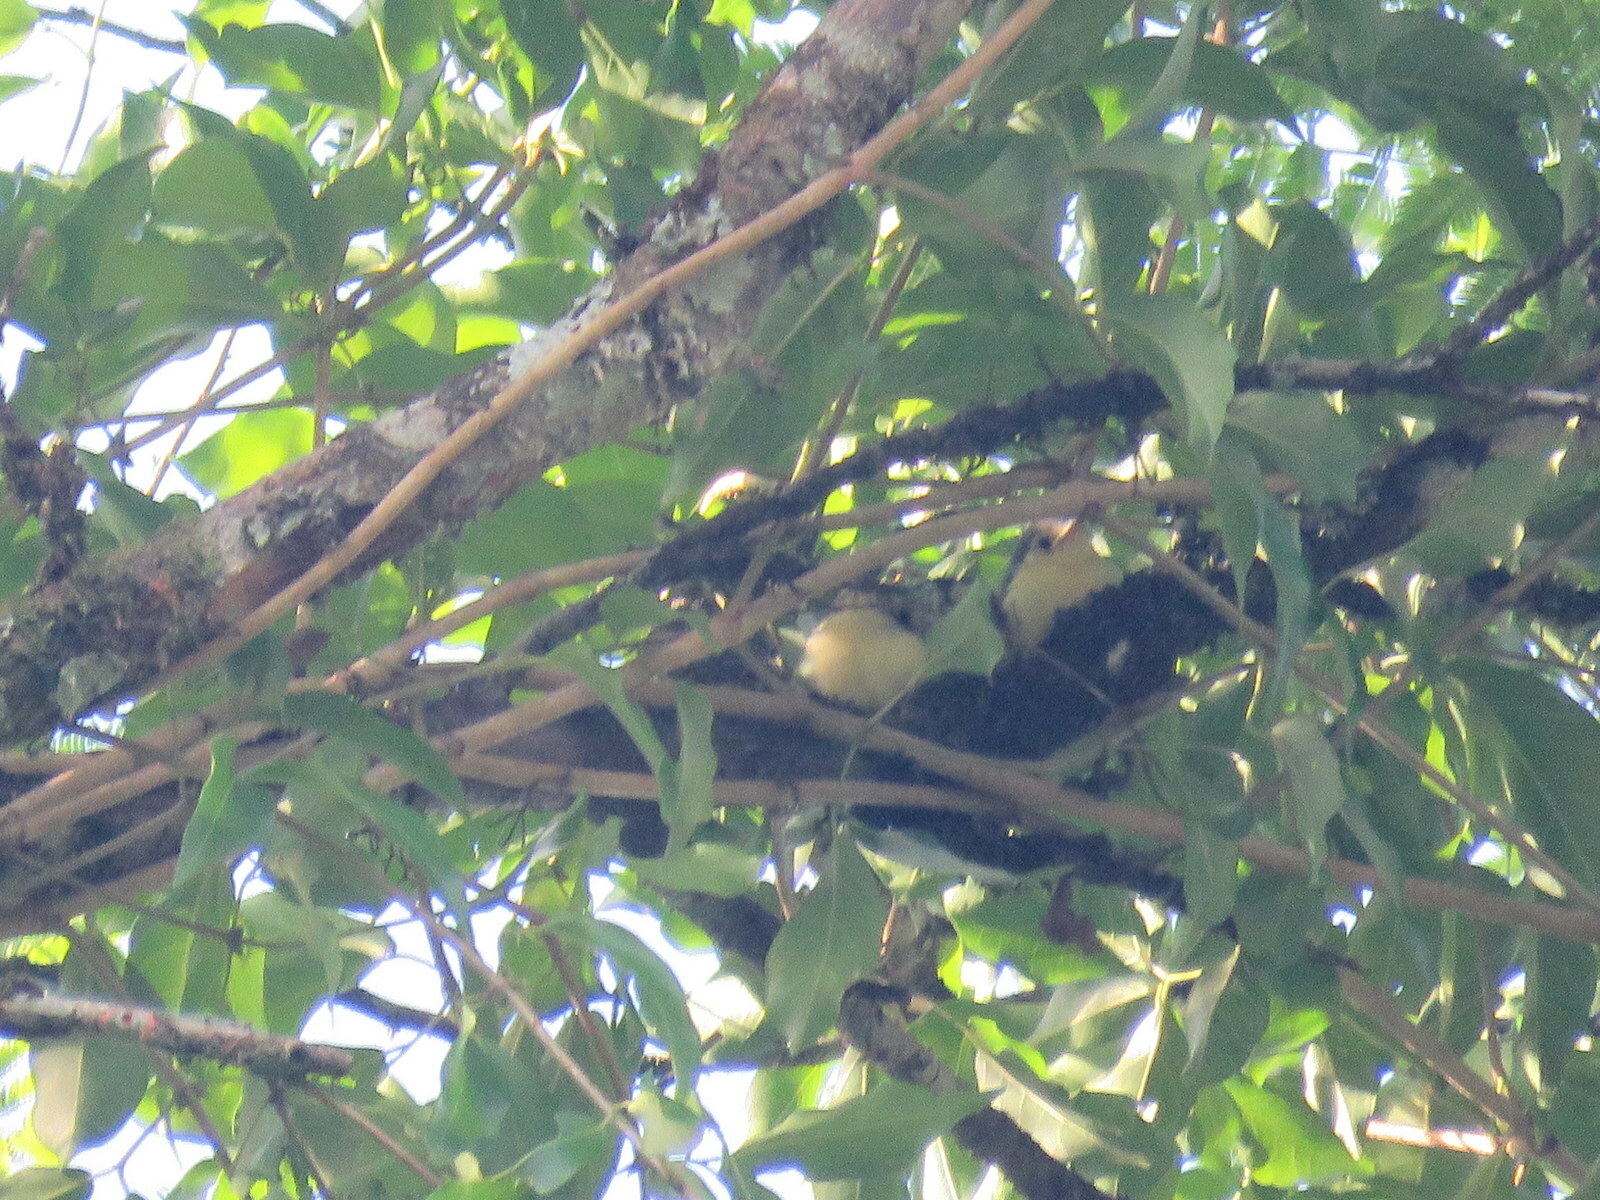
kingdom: Animalia
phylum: Chordata
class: Aves
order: Passeriformes
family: Polioptilidae
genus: Polioptila
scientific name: Polioptila lactea
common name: Creamy-bellied gnatcatcher
